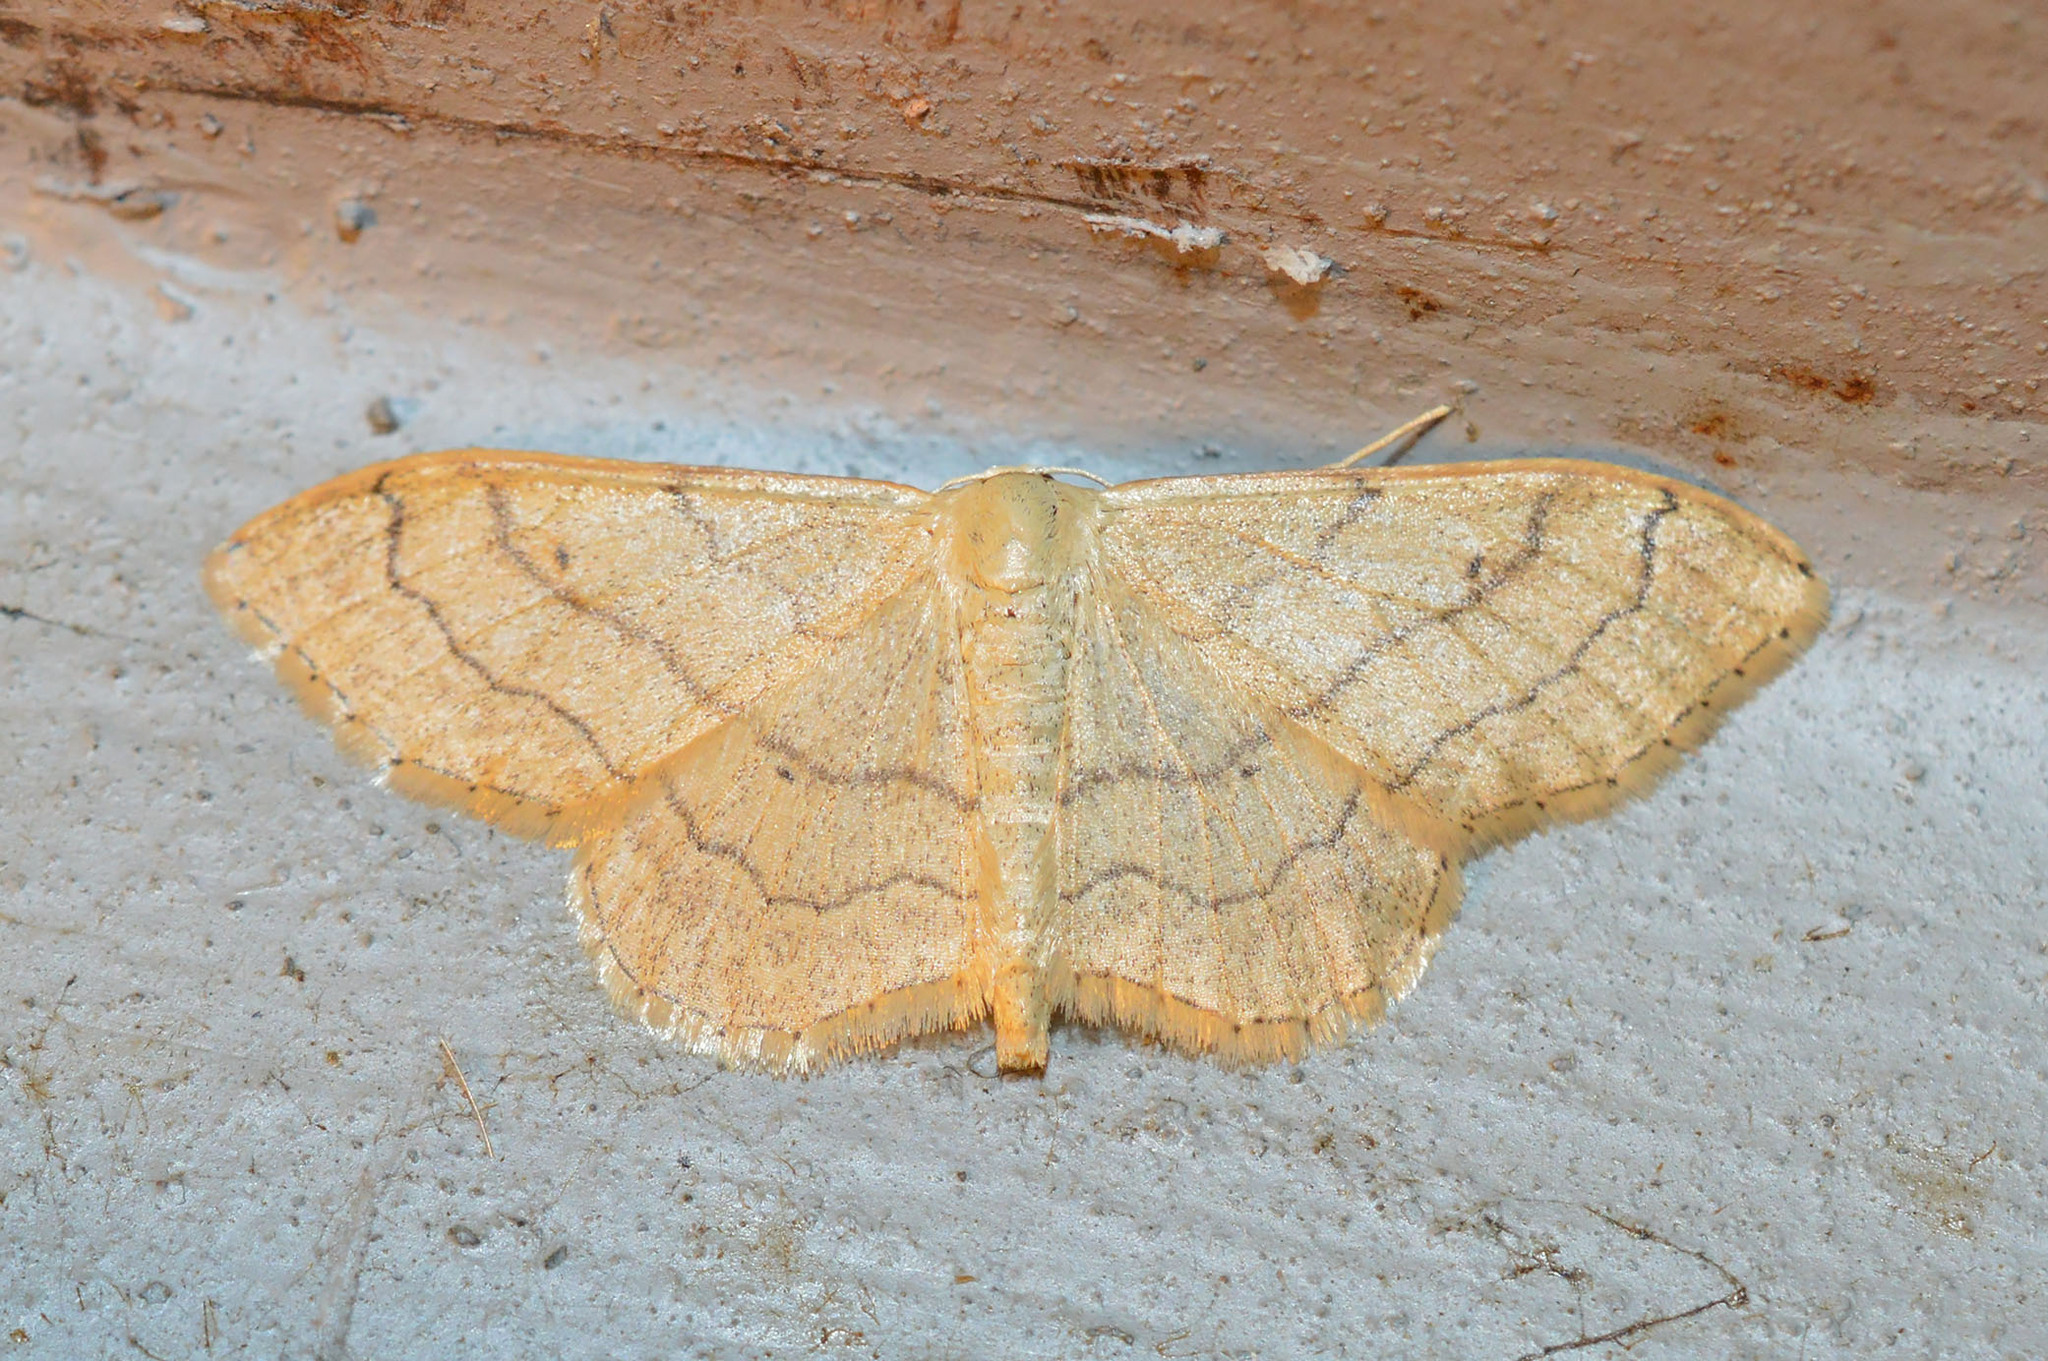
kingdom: Animalia
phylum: Arthropoda
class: Insecta
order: Lepidoptera
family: Geometridae
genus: Idaea
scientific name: Idaea aversata
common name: Riband wave
